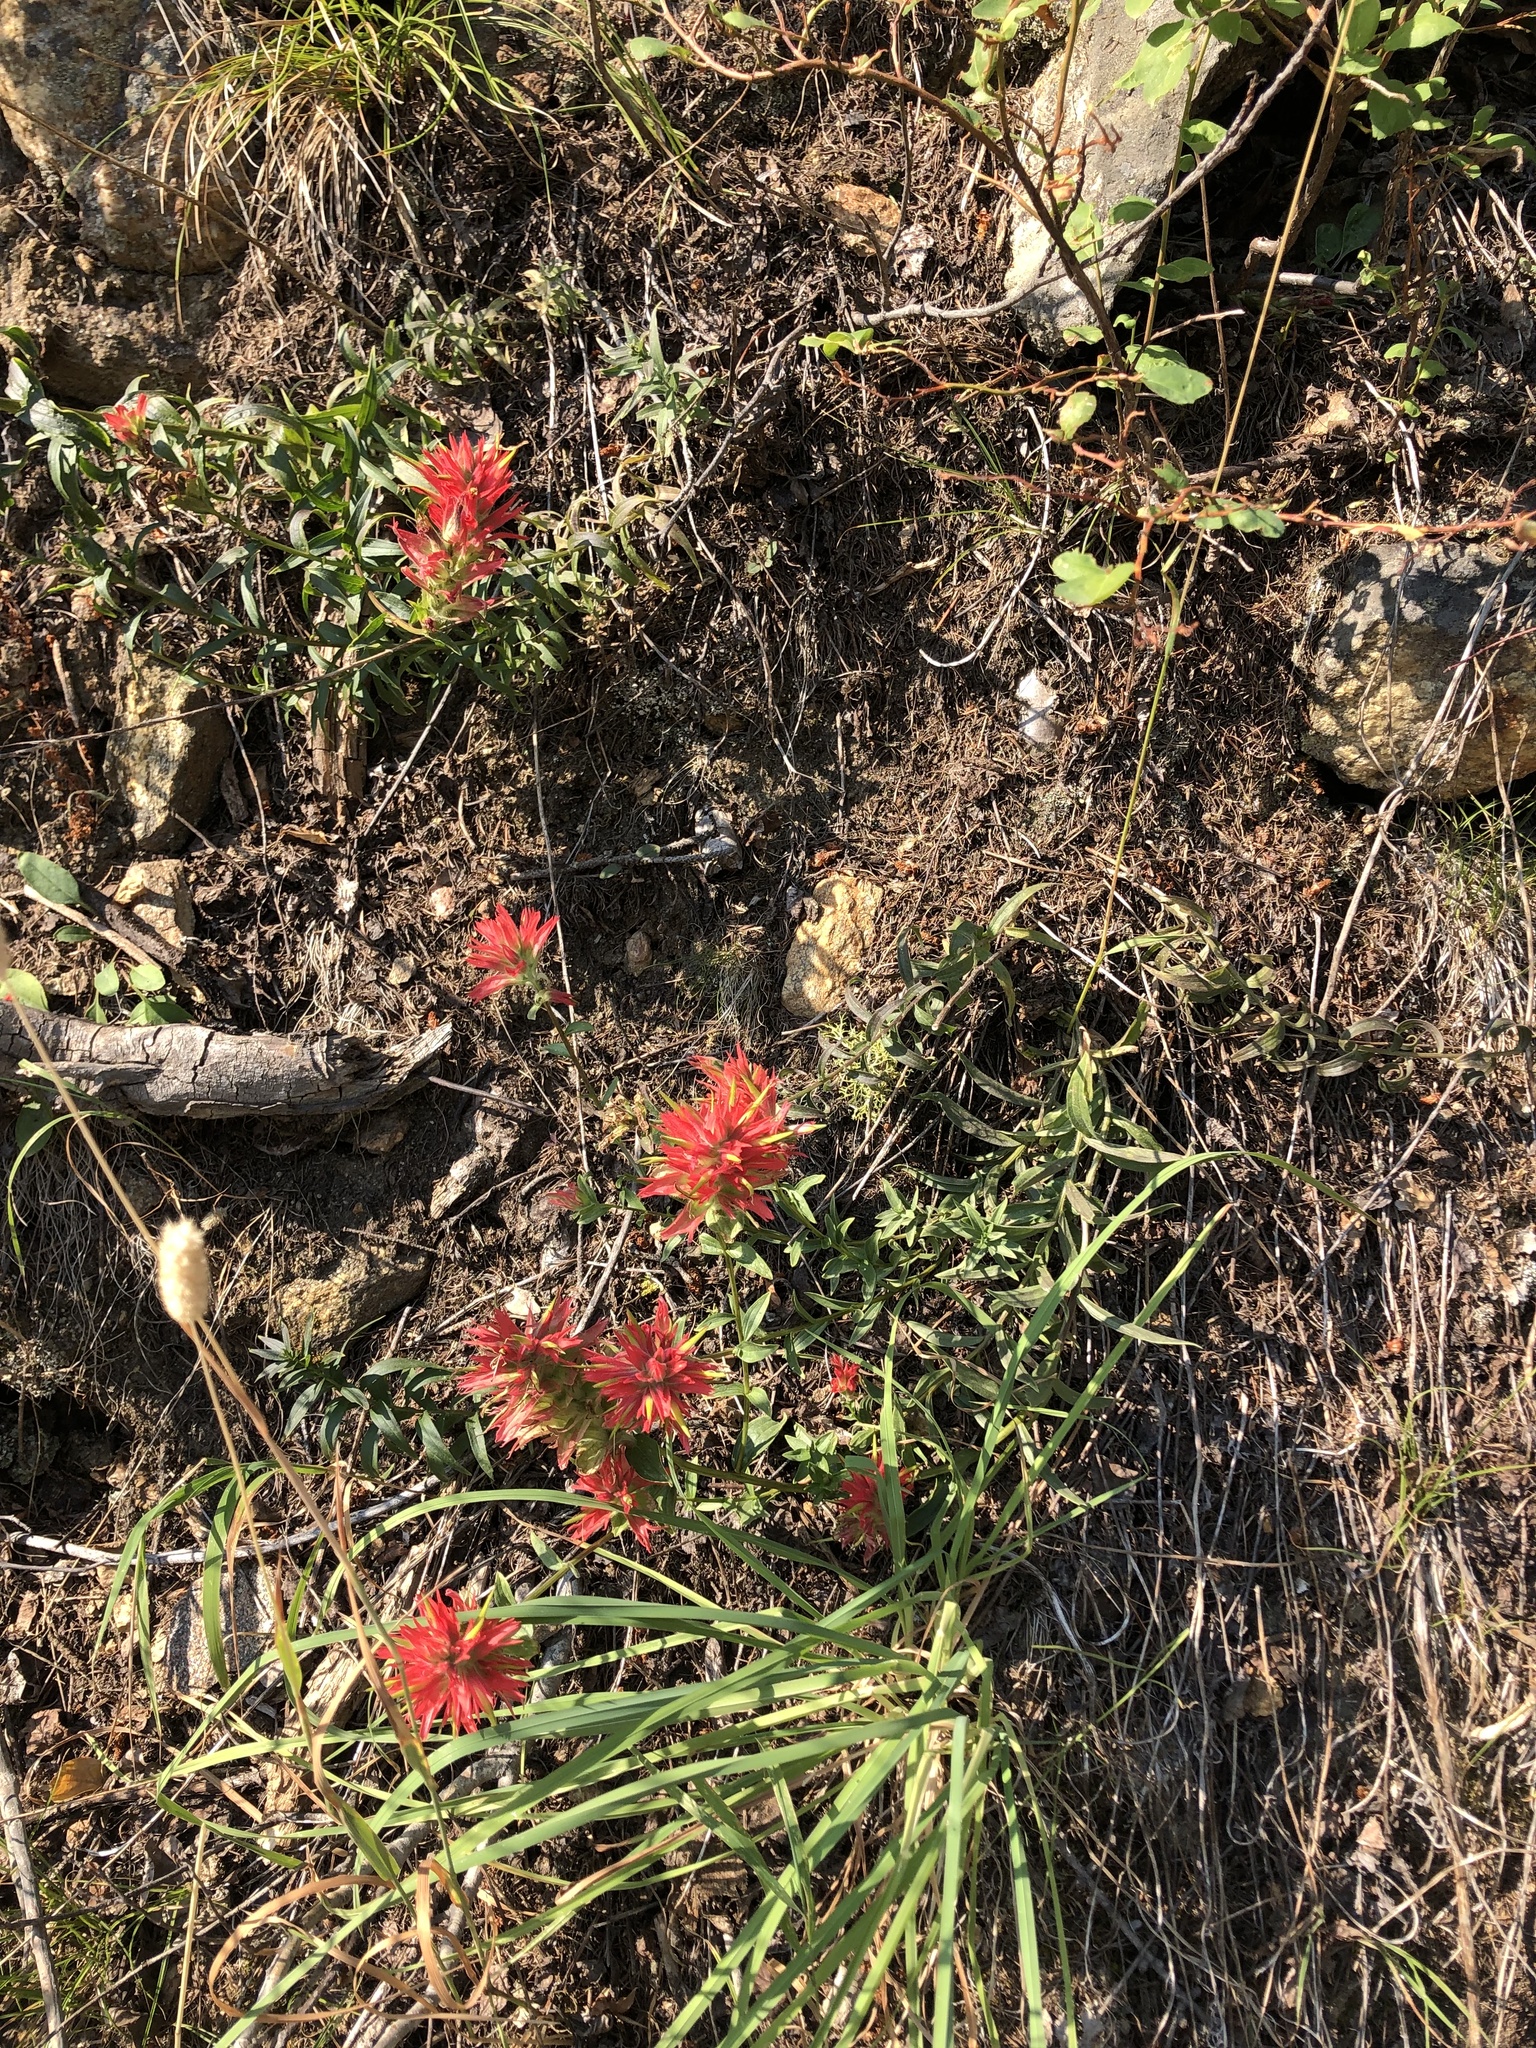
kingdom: Plantae
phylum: Tracheophyta
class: Magnoliopsida
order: Lamiales
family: Orobanchaceae
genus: Castilleja
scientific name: Castilleja miniata
